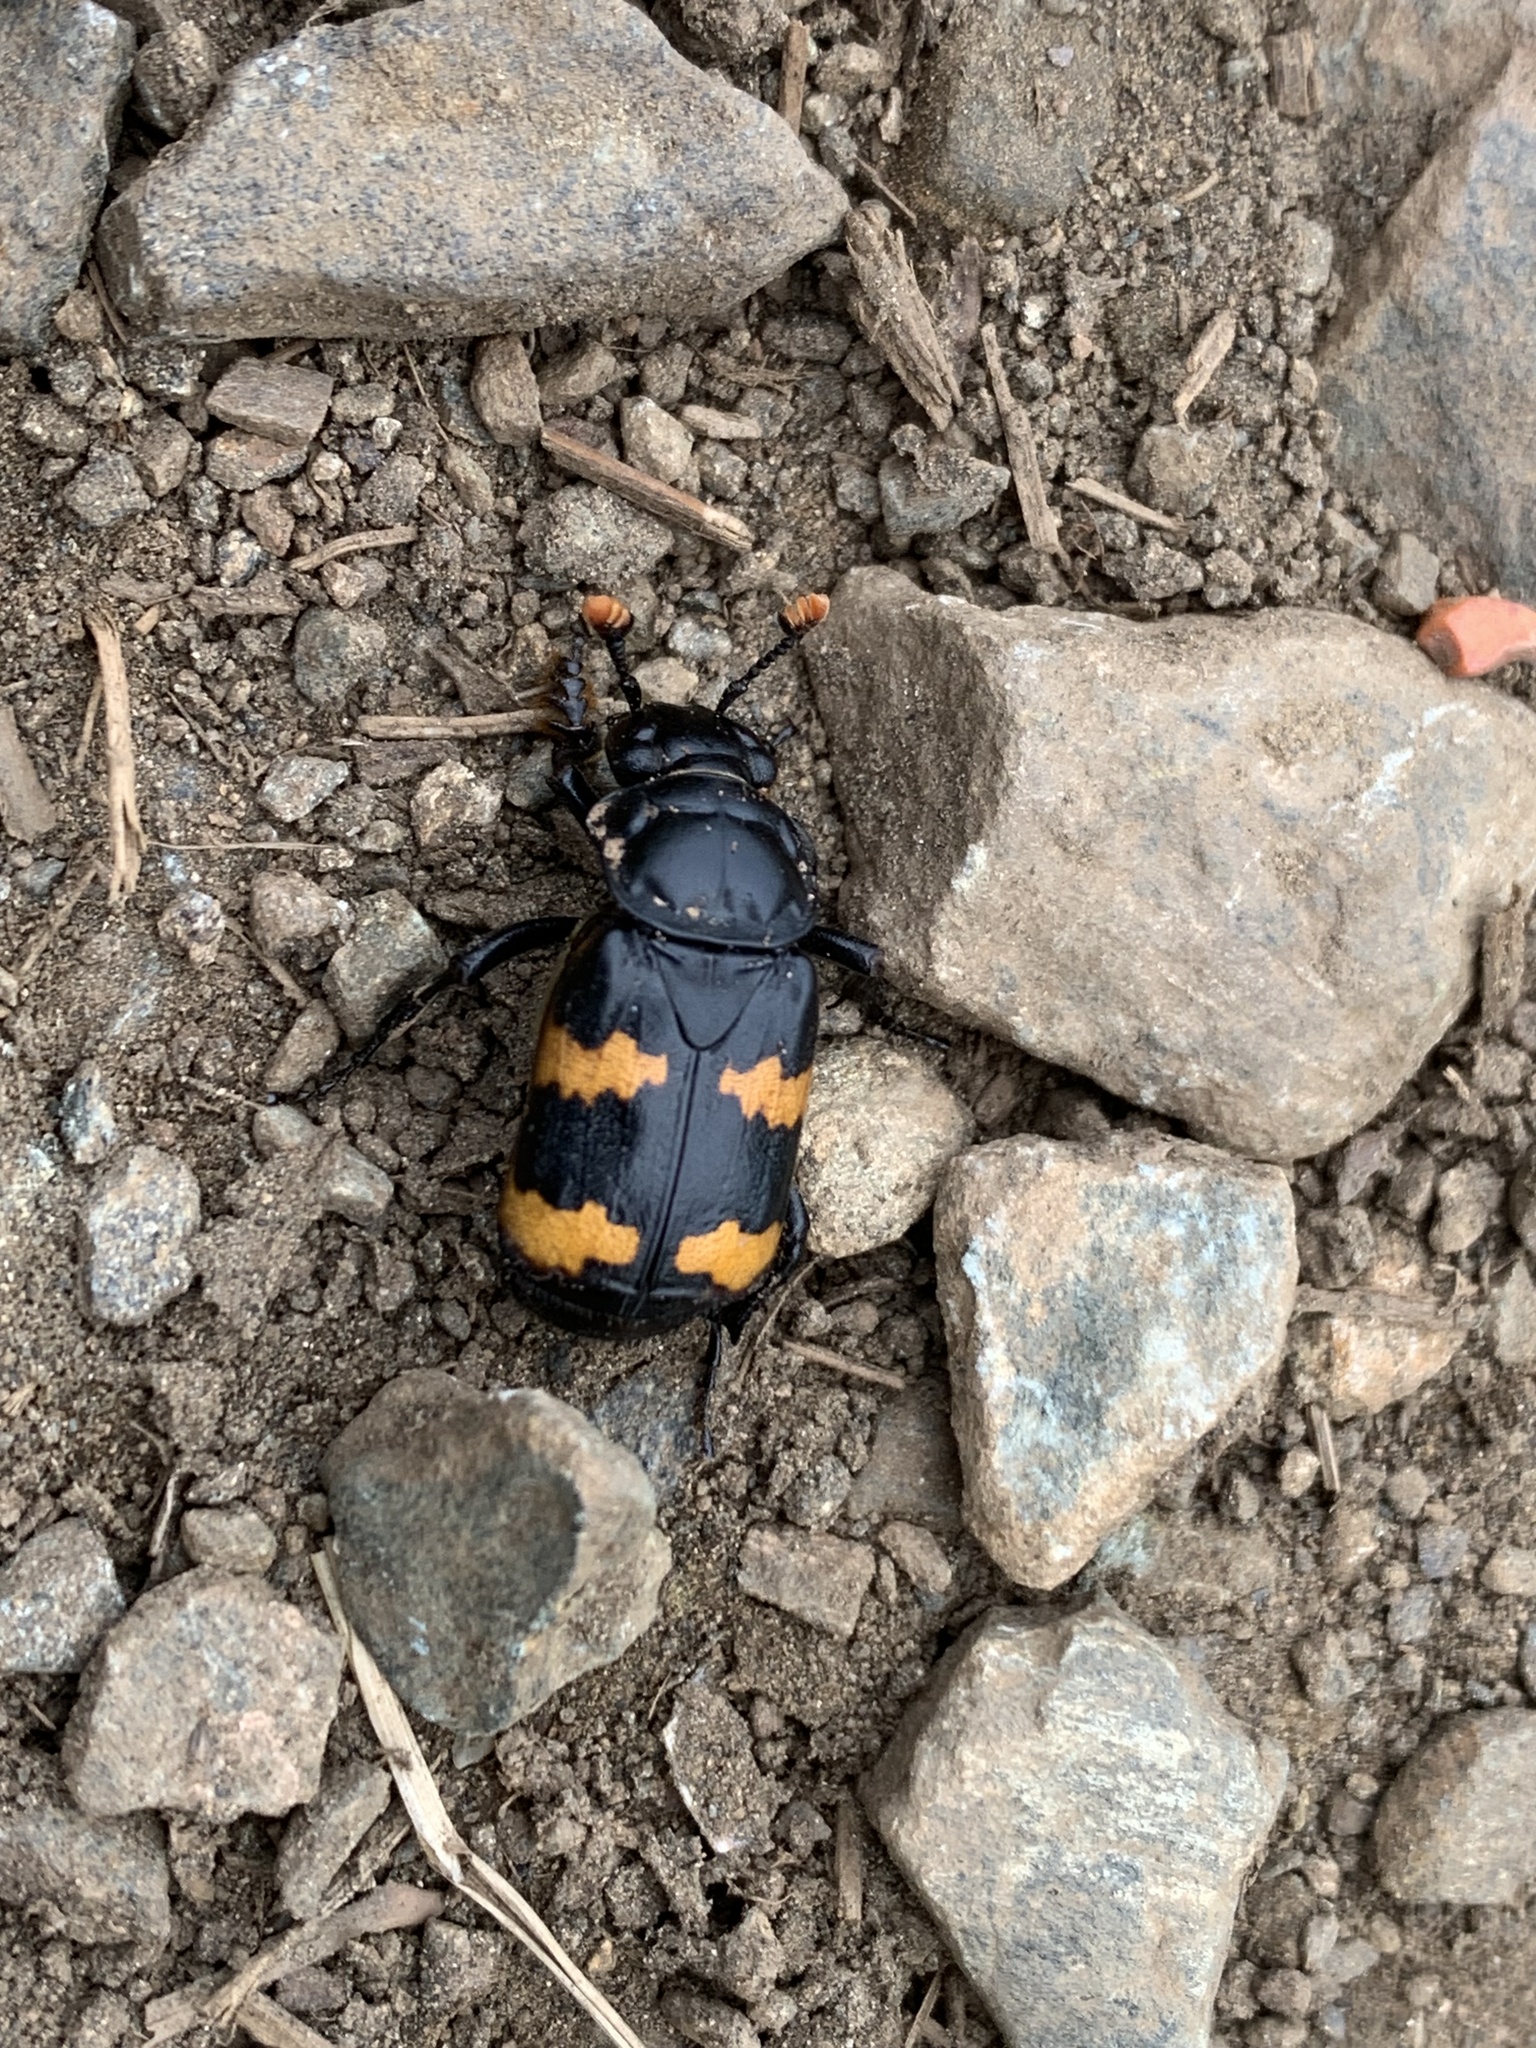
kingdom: Animalia
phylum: Arthropoda
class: Insecta
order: Coleoptera
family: Staphylinidae
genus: Nicrophorus
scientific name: Nicrophorus interruptus
